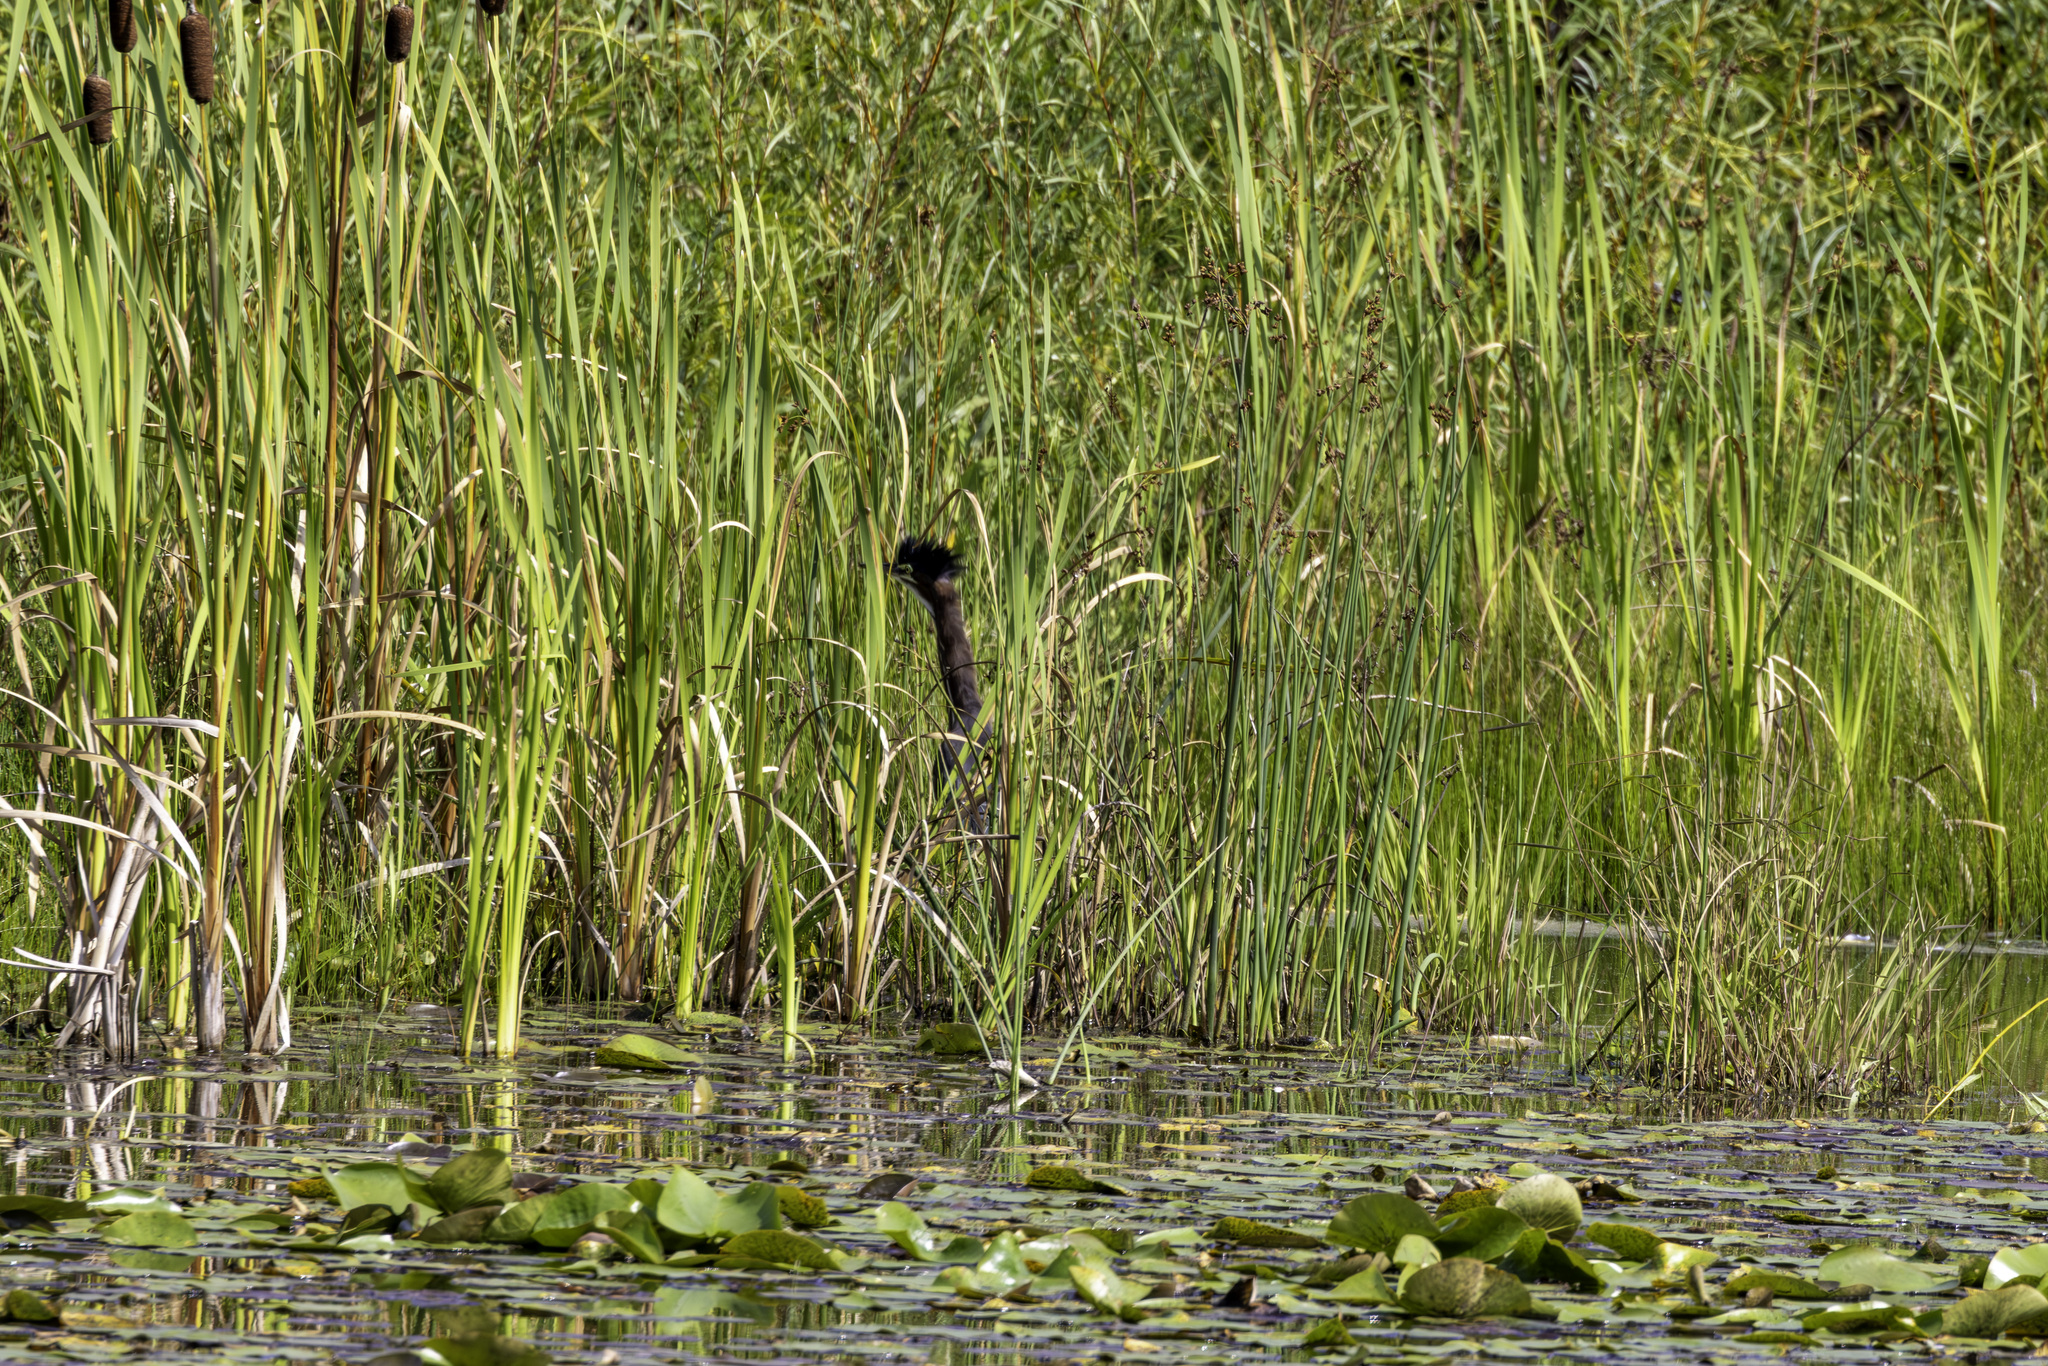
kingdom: Animalia
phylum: Chordata
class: Aves
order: Pelecaniformes
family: Ardeidae
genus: Butorides
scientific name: Butorides virescens
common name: Green heron
